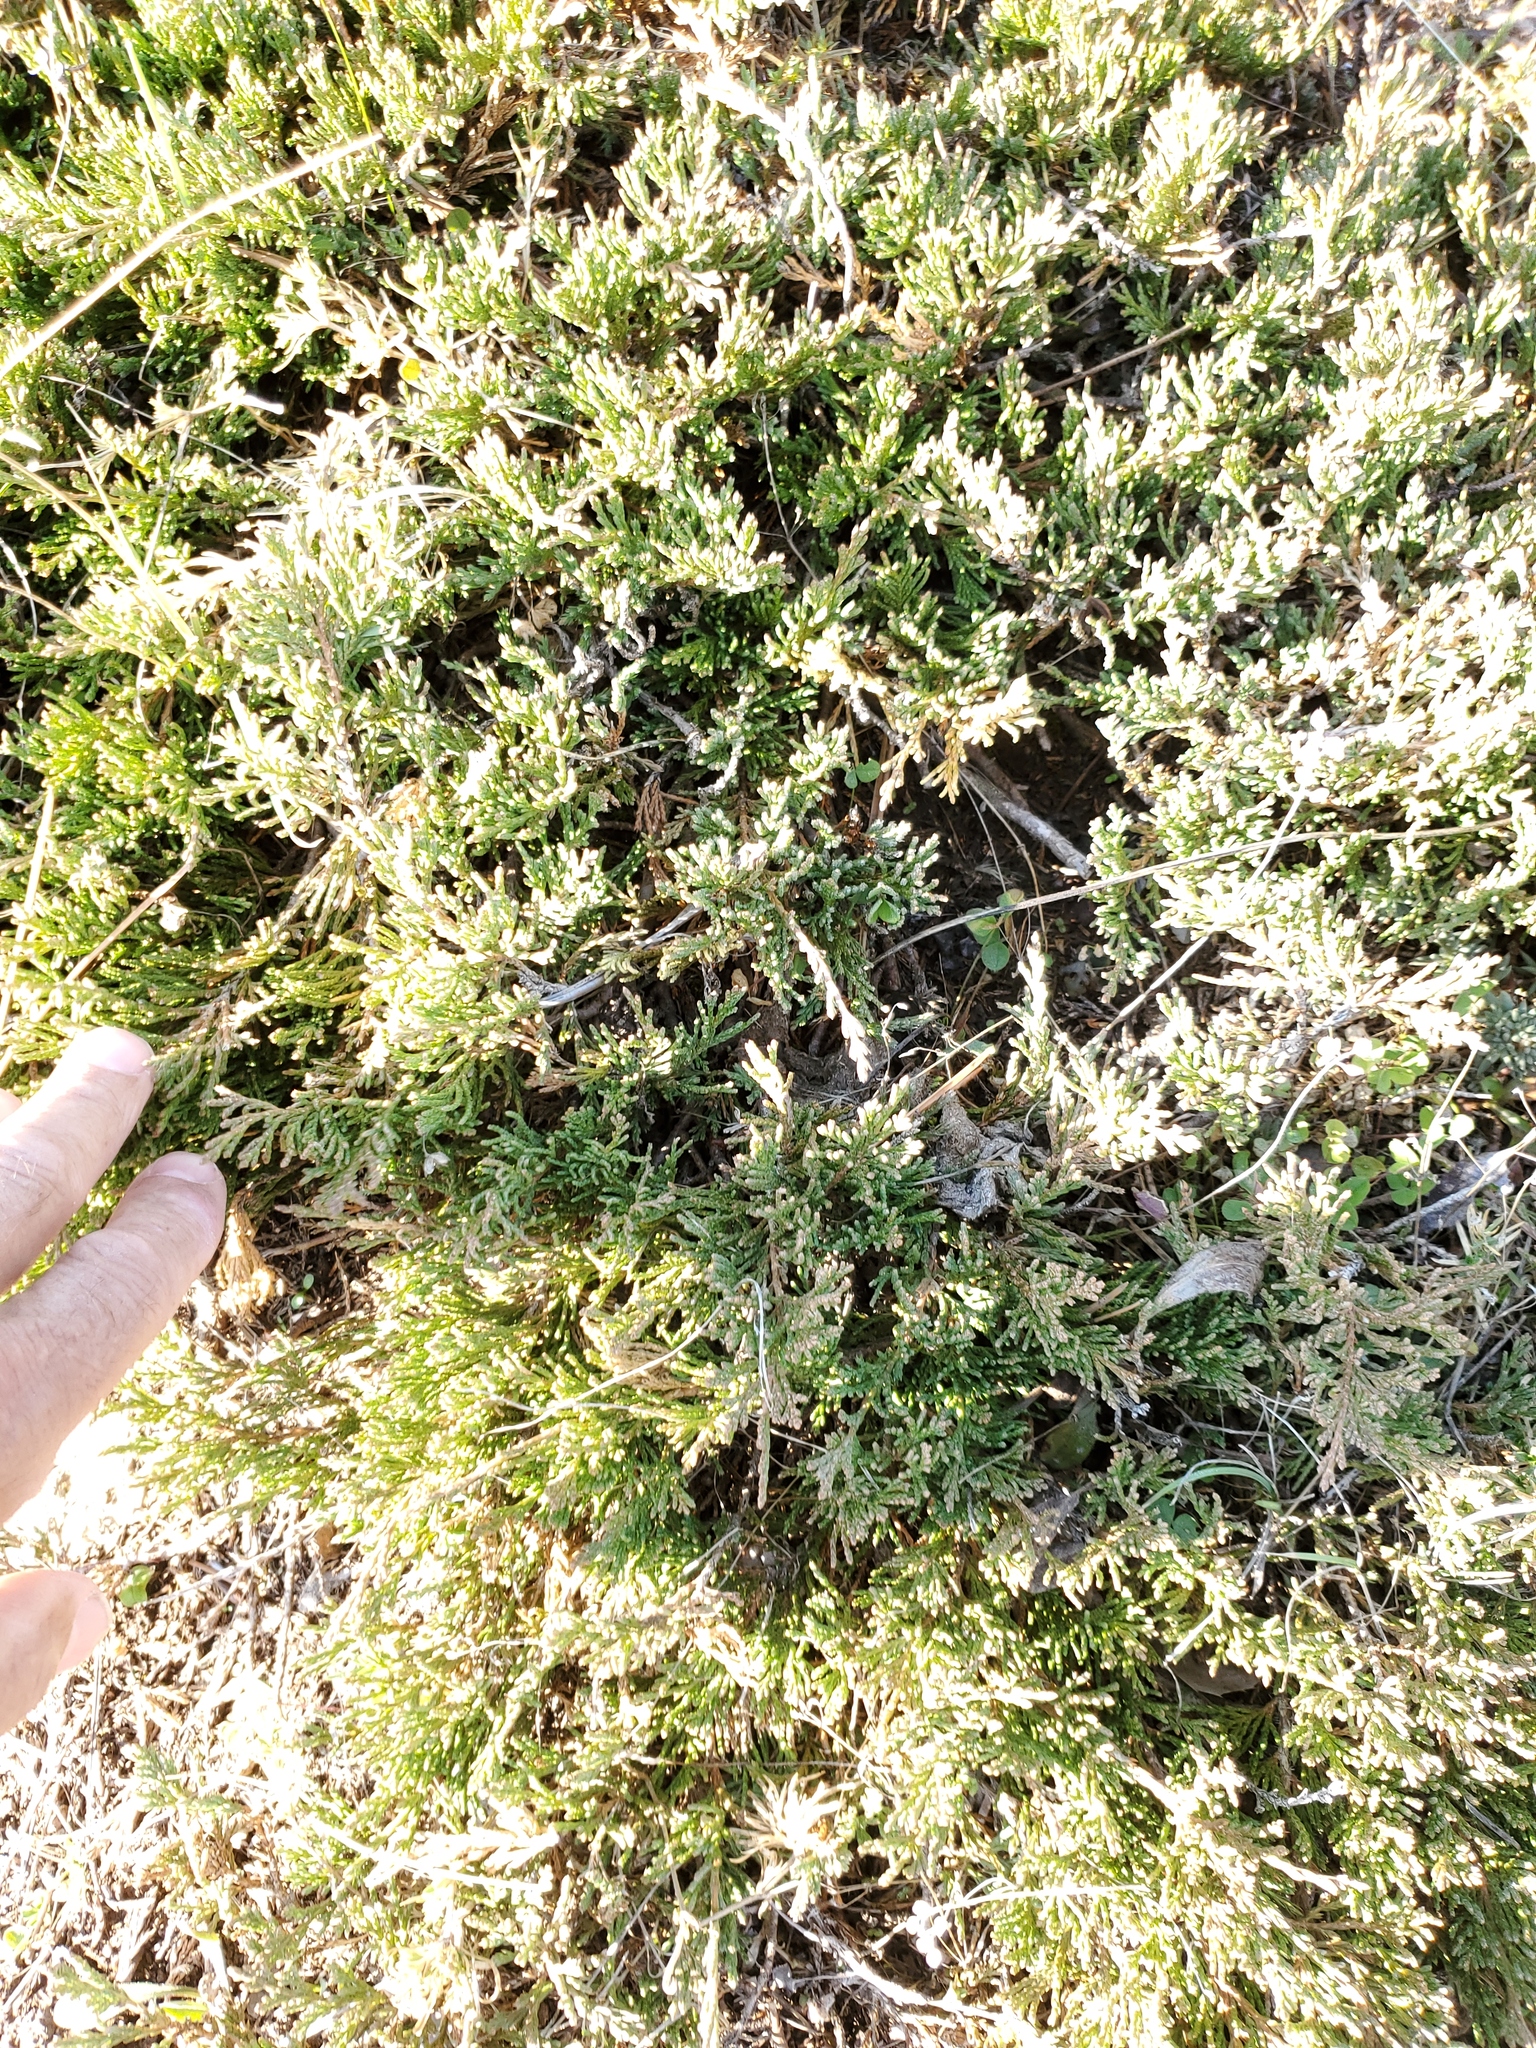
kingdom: Plantae
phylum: Tracheophyta
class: Pinopsida
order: Pinales
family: Cupressaceae
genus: Juniperus
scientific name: Juniperus horizontalis
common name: Creeping juniper
